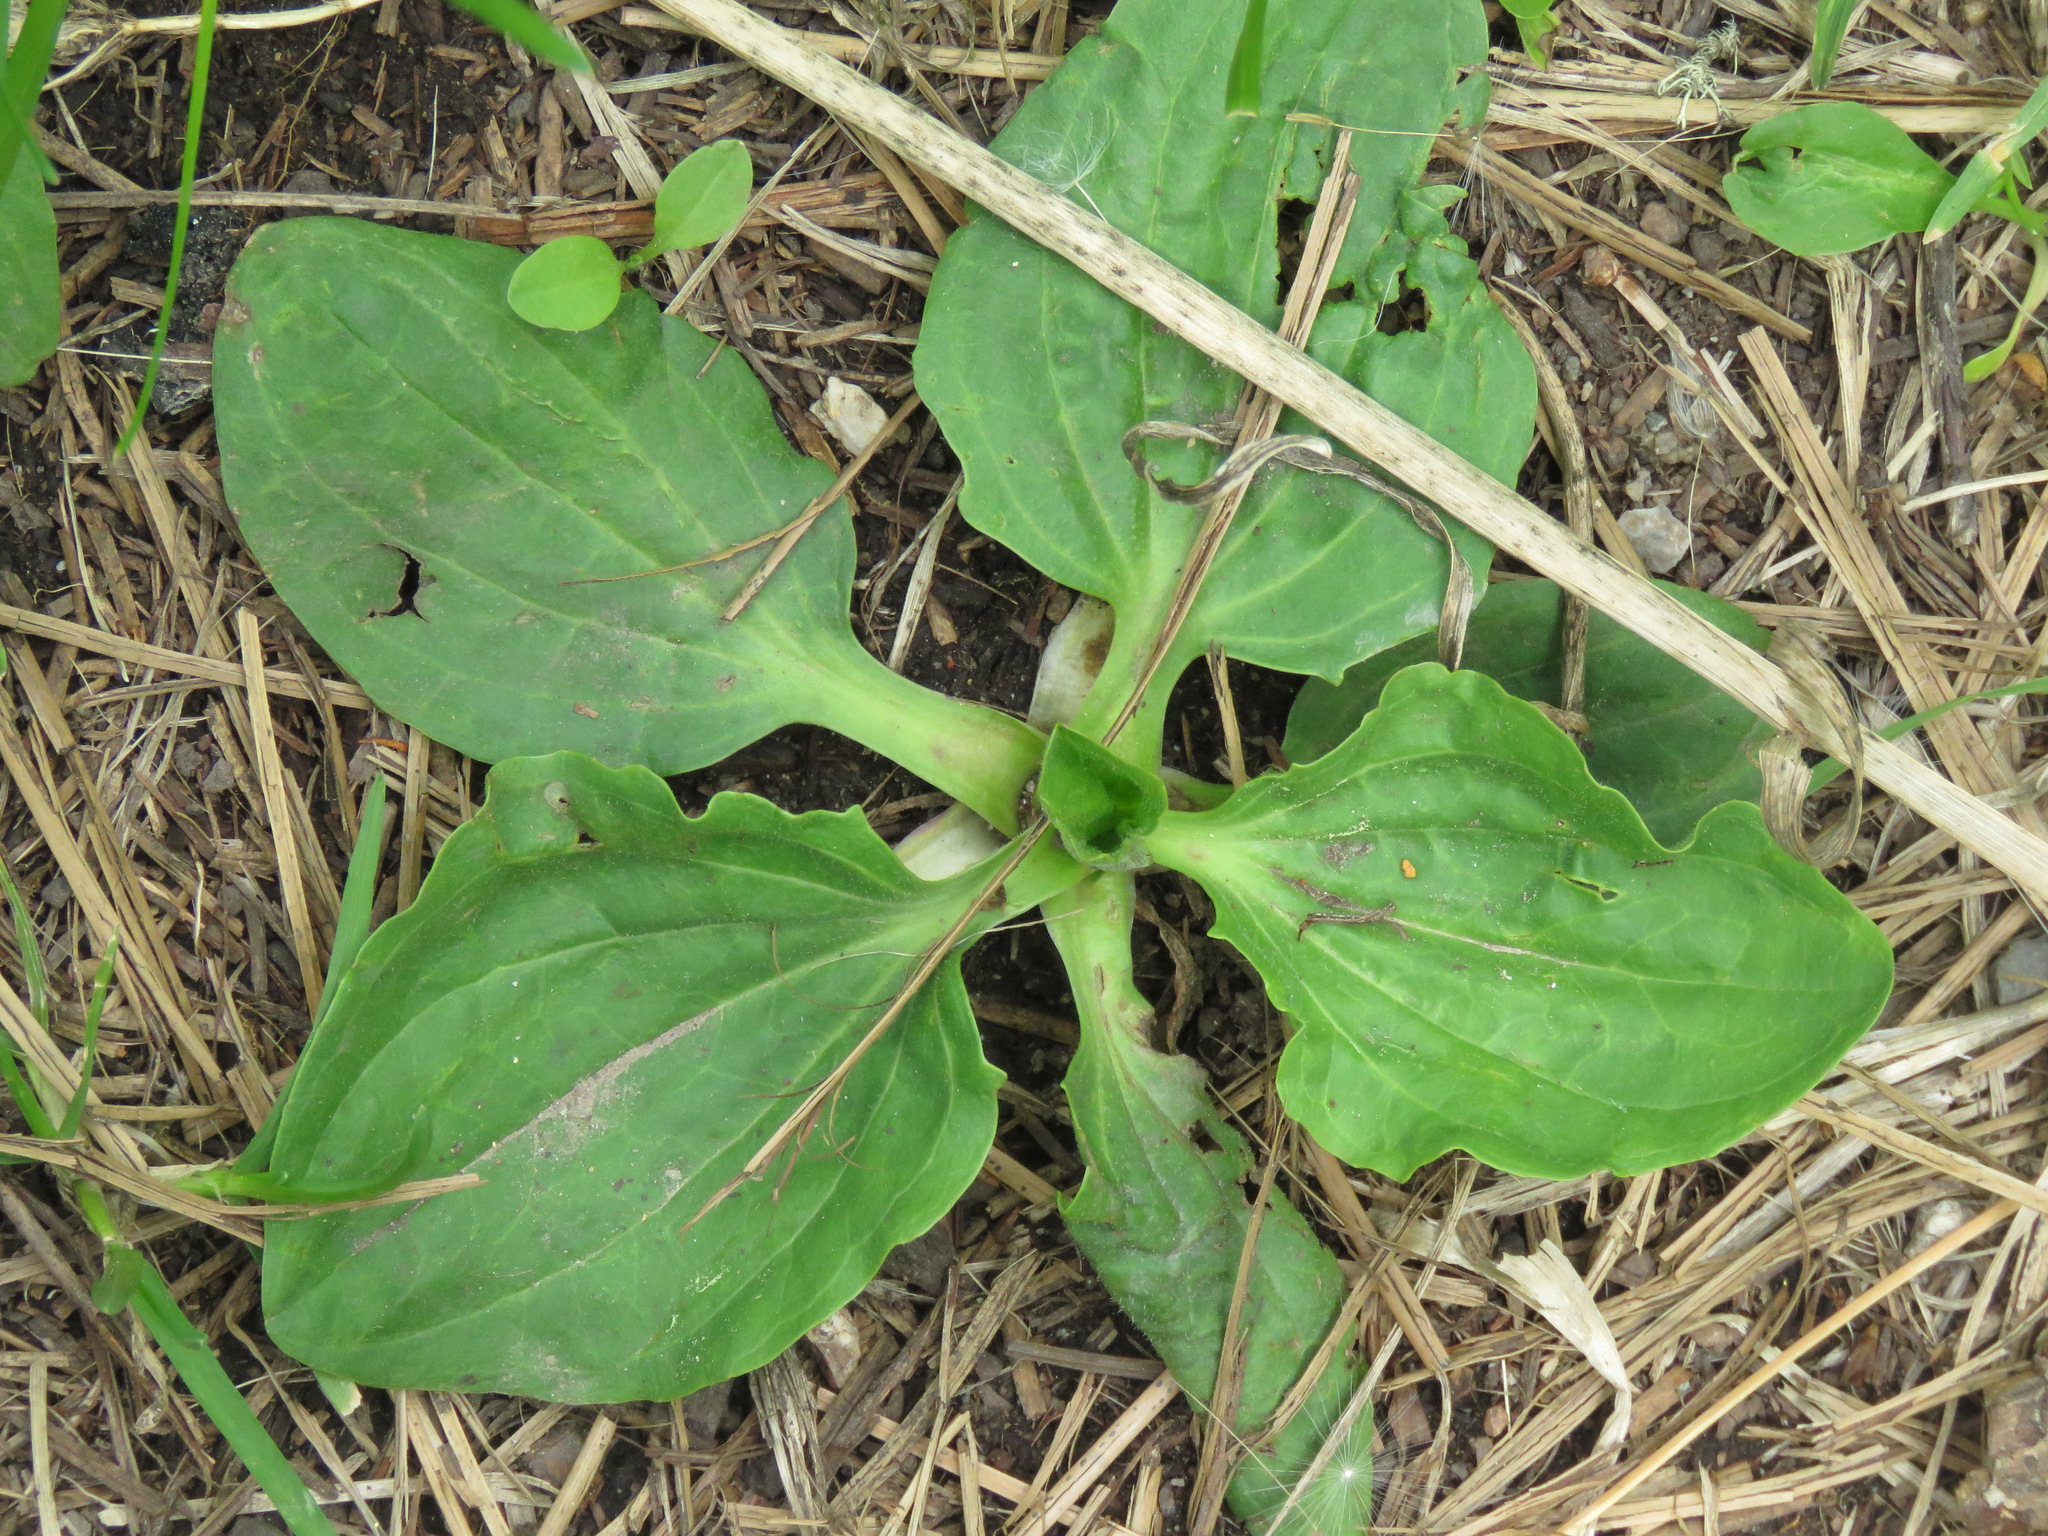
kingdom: Plantae
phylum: Tracheophyta
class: Magnoliopsida
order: Lamiales
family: Plantaginaceae
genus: Plantago
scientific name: Plantago major
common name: Common plantain
